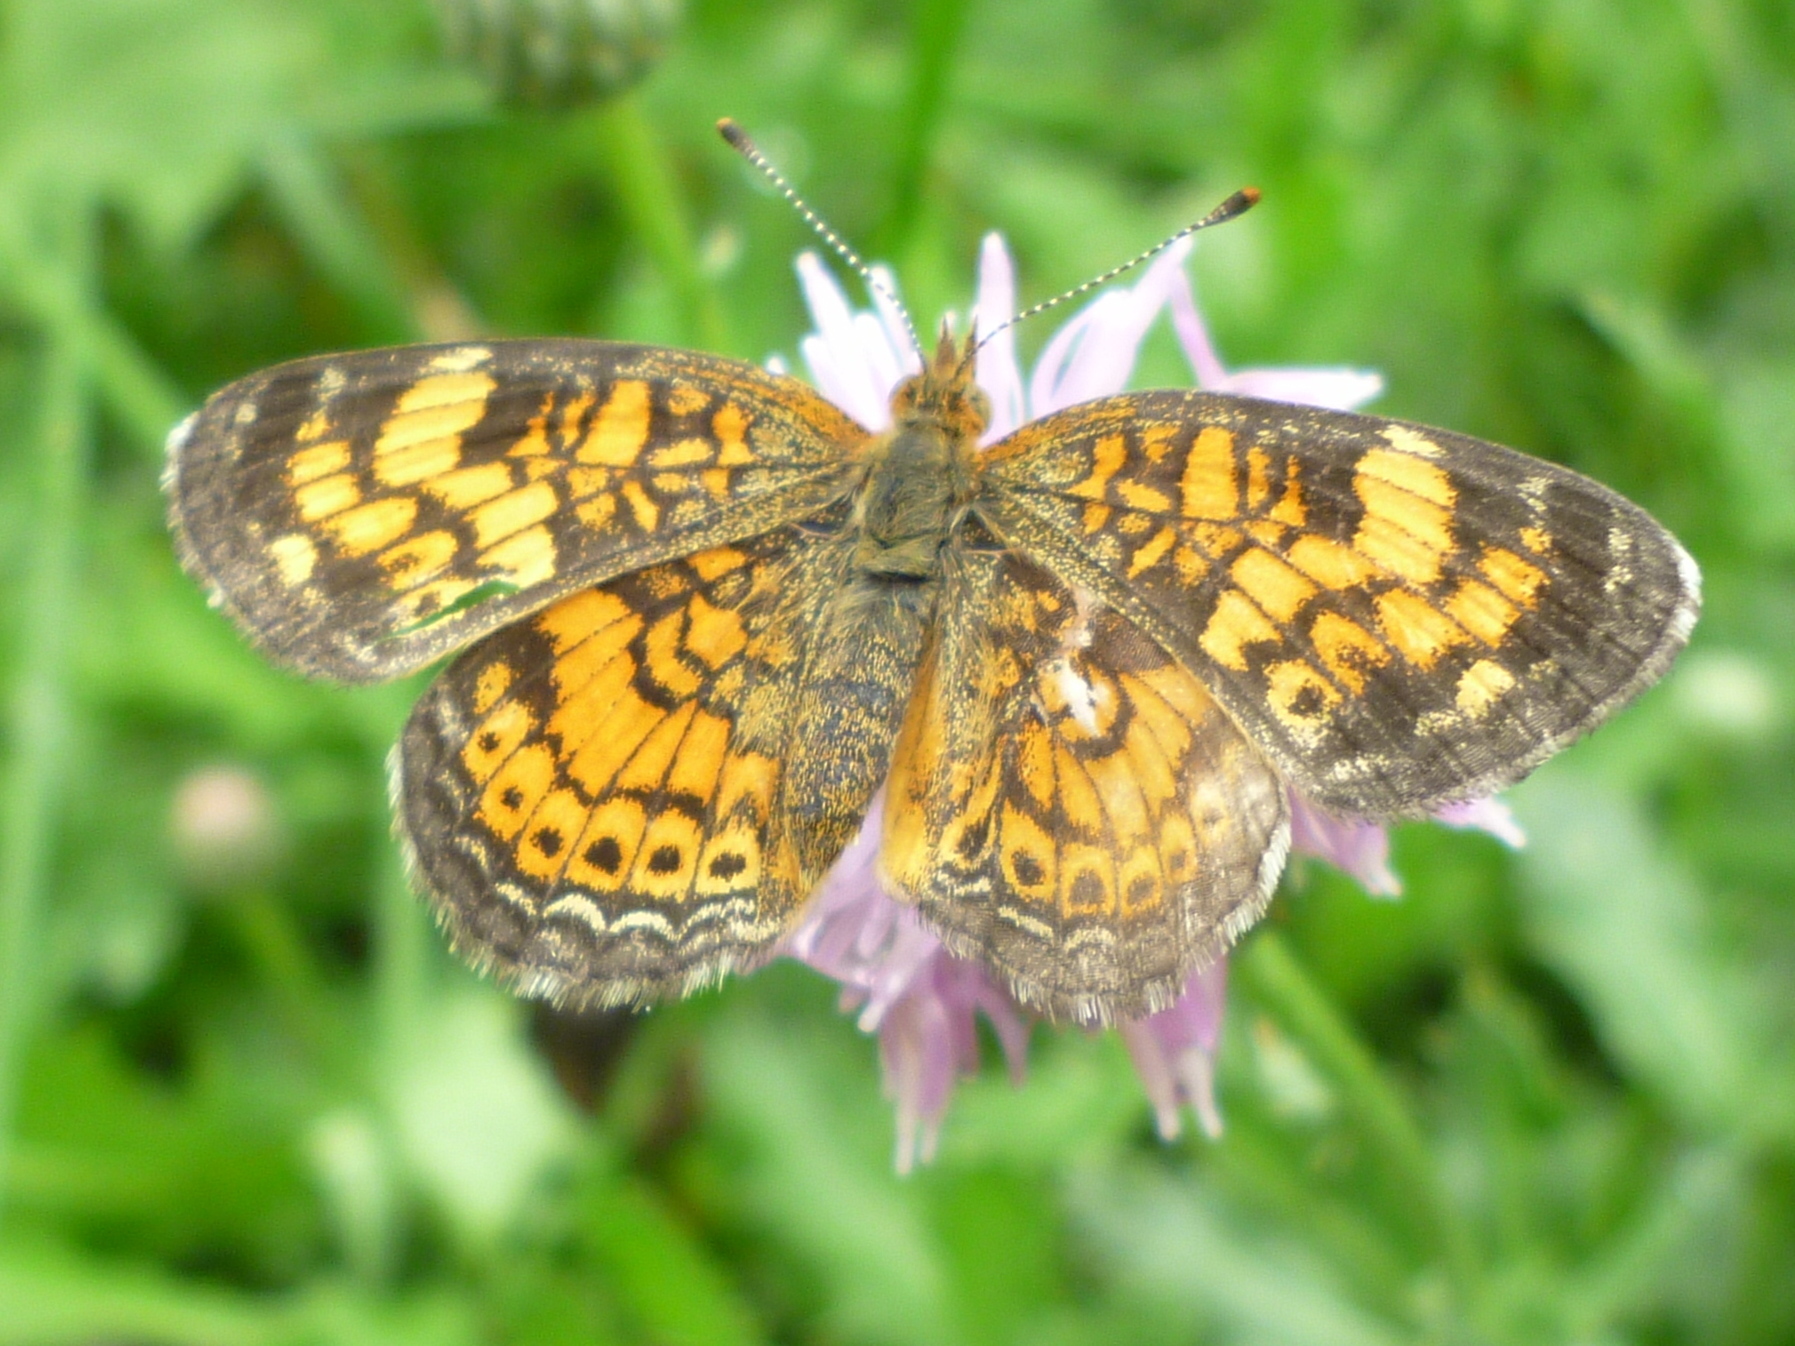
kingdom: Animalia
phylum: Arthropoda
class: Insecta
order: Lepidoptera
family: Nymphalidae
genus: Phyciodes
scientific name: Phyciodes tharos
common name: Pearl crescent
